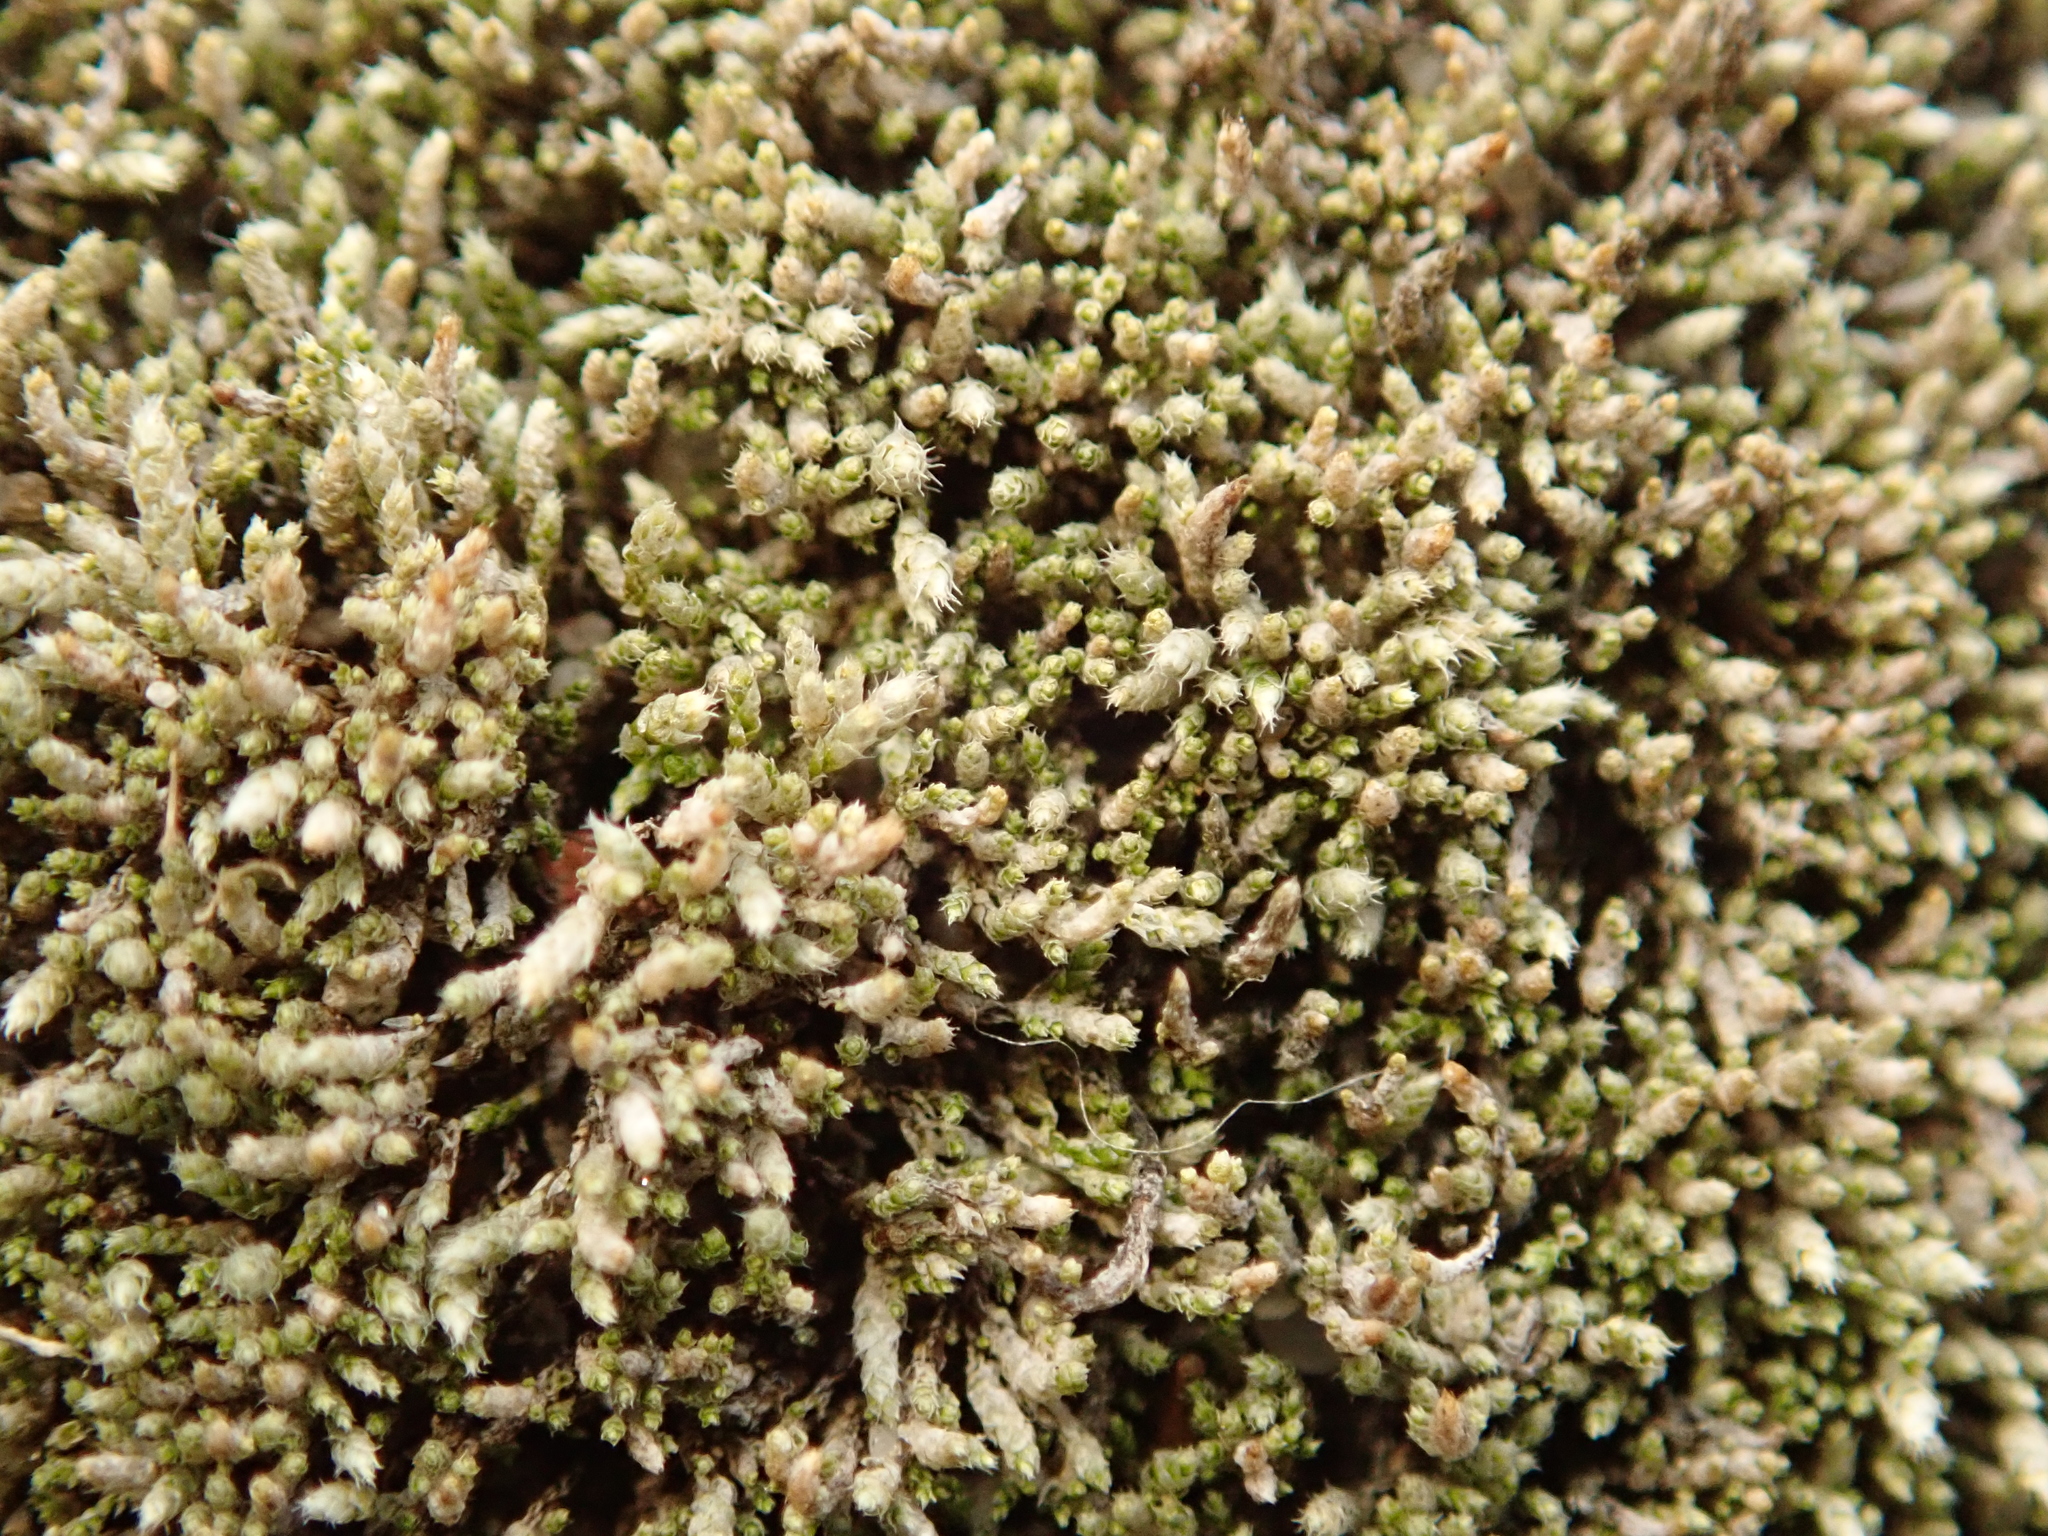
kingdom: Plantae
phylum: Bryophyta
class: Bryopsida
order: Bryales
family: Bryaceae
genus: Bryum
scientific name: Bryum argenteum
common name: Silver-moss
